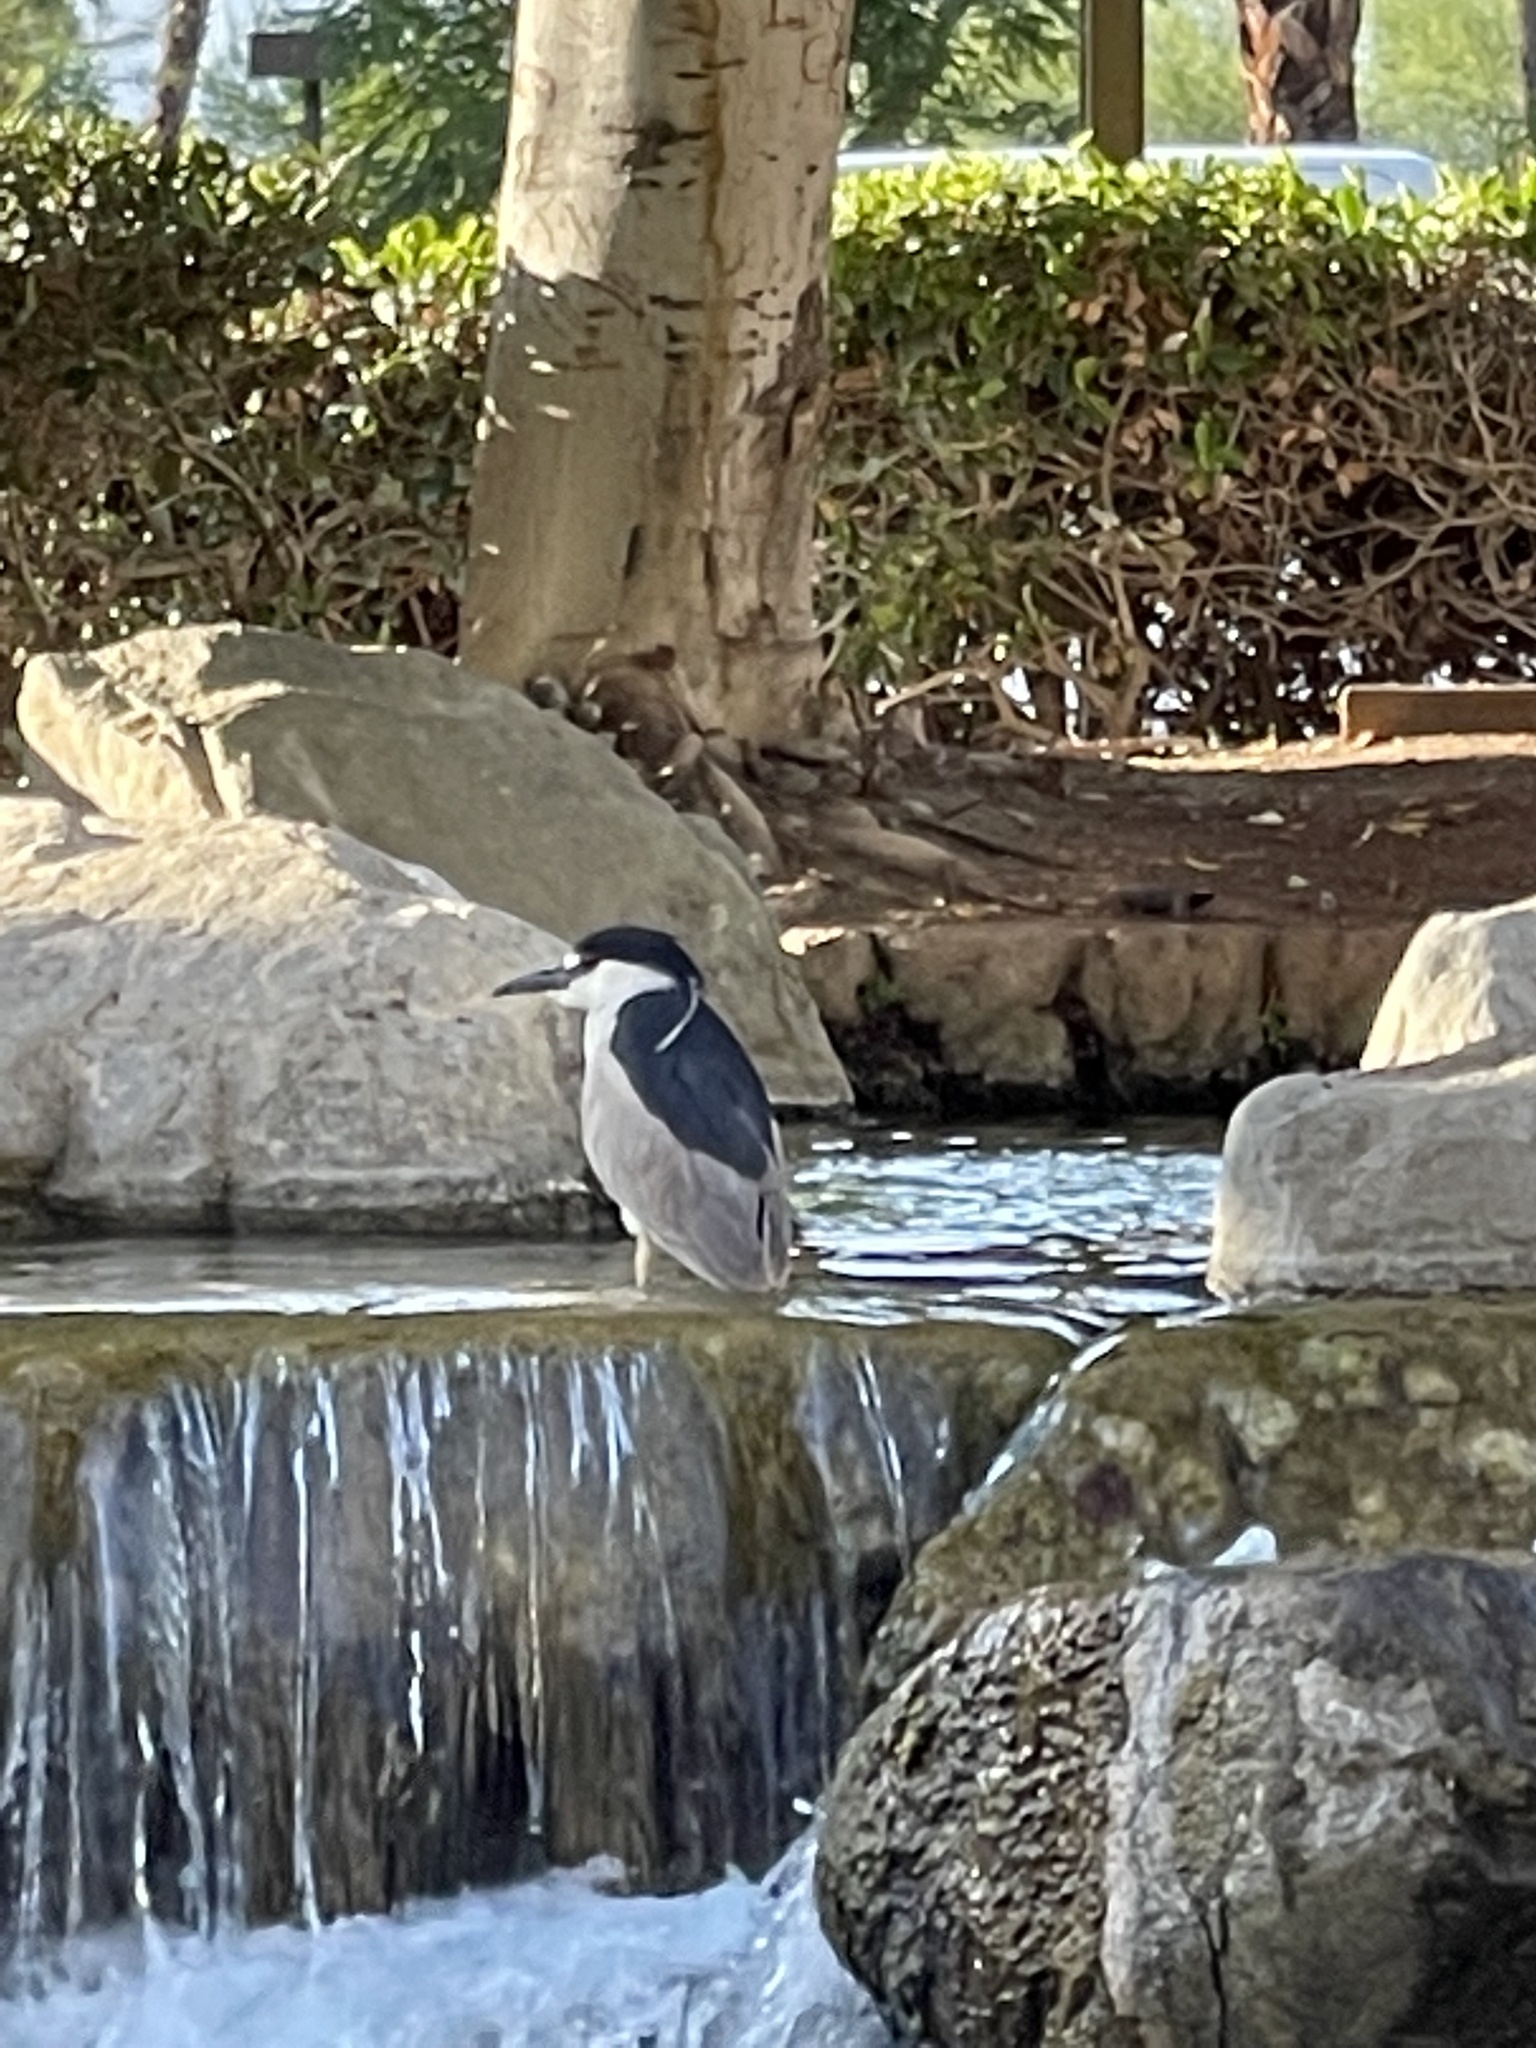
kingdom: Animalia
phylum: Chordata
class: Aves
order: Pelecaniformes
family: Ardeidae
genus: Nycticorax
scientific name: Nycticorax nycticorax
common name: Black-crowned night heron
